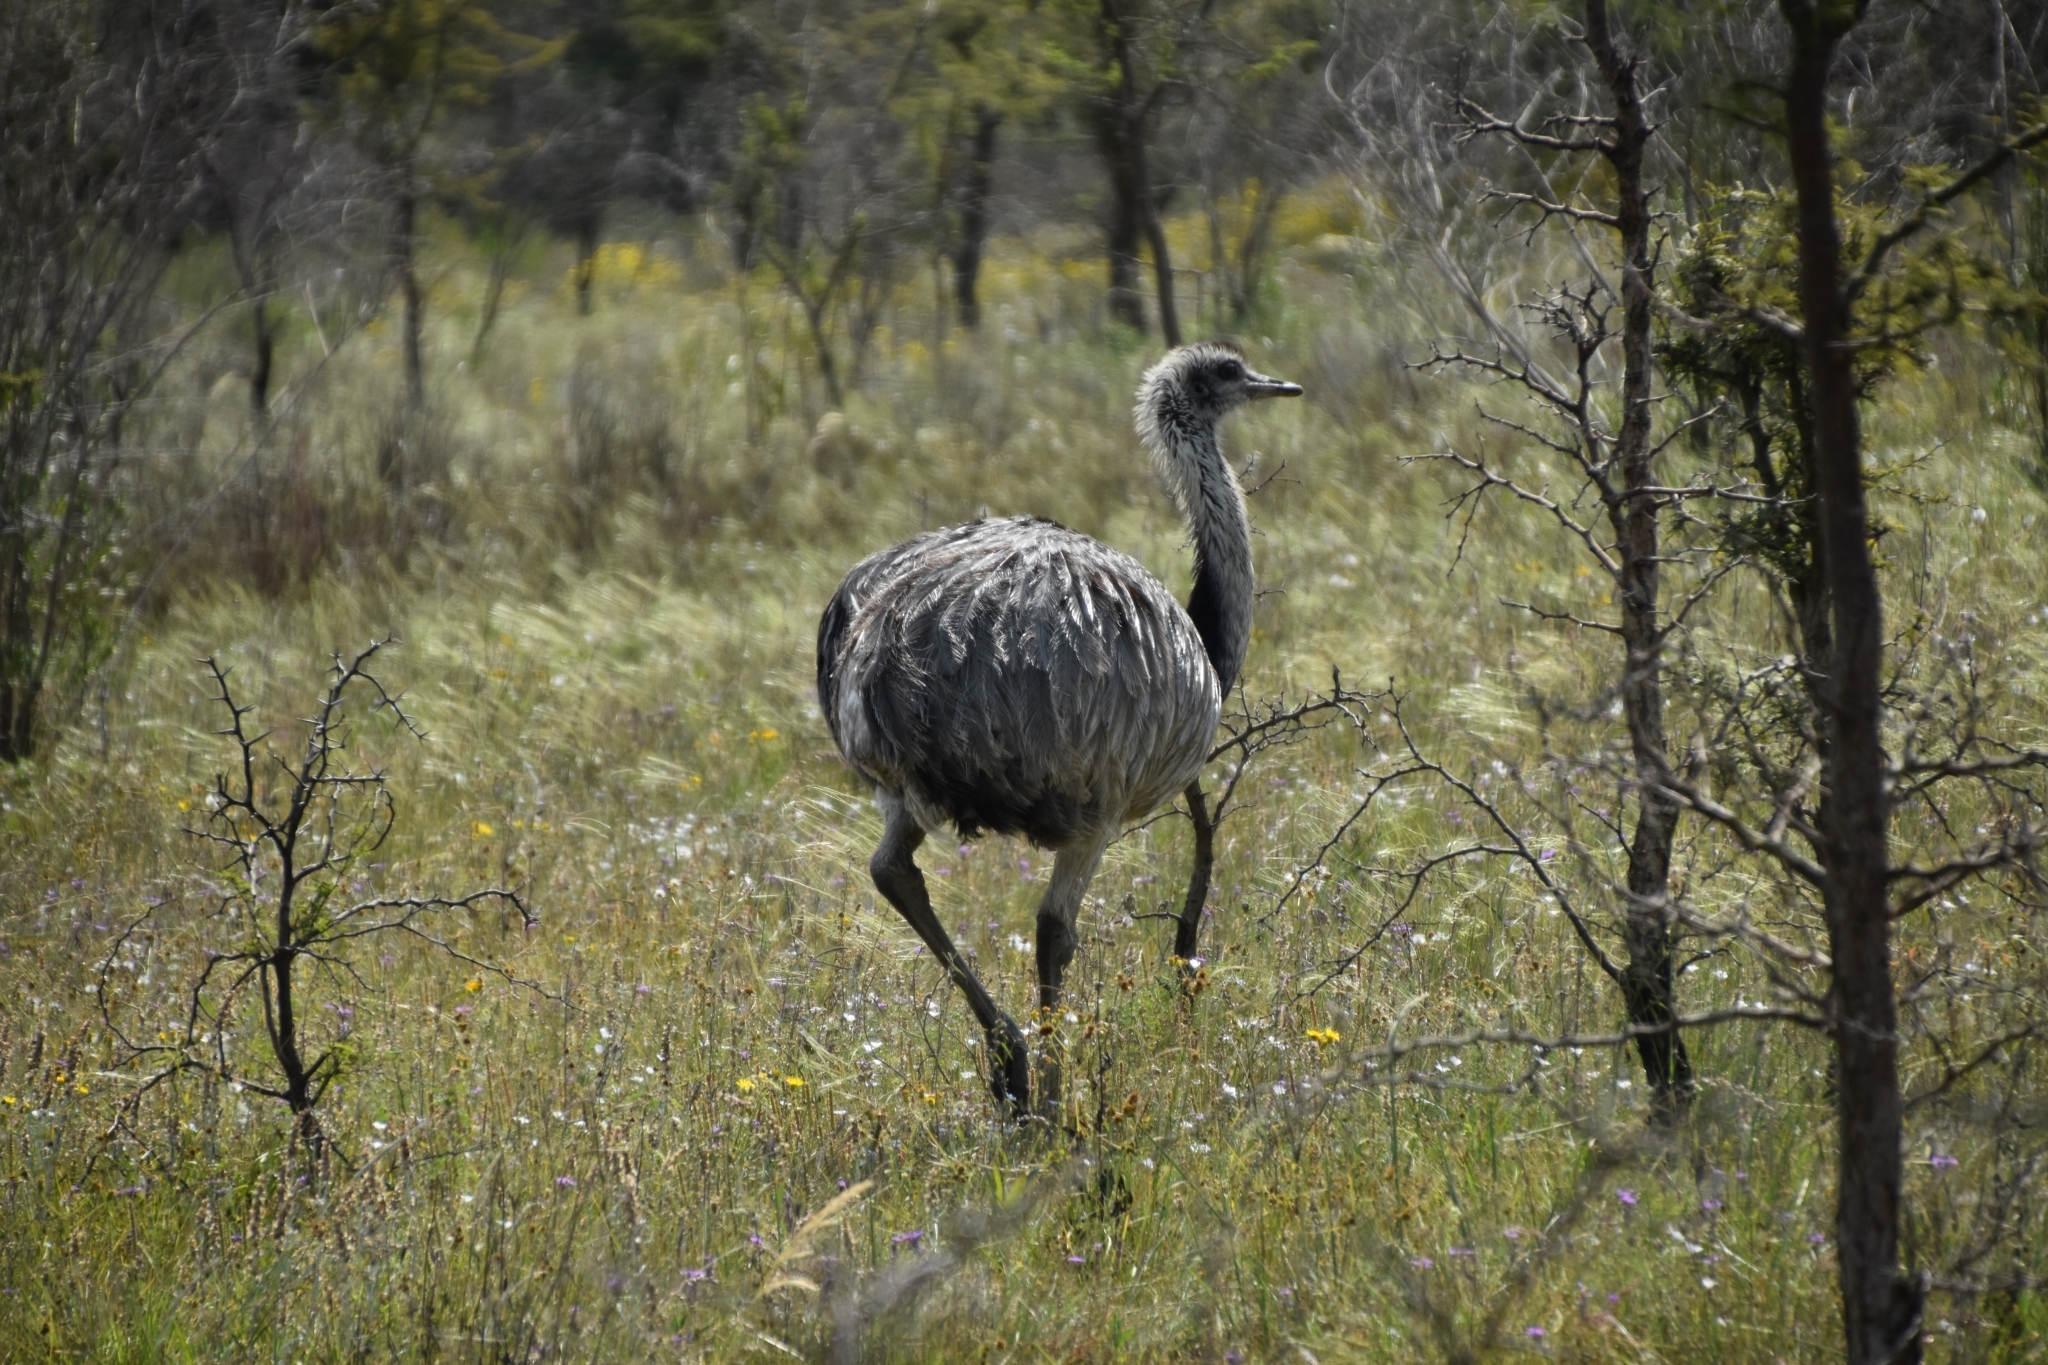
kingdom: Animalia
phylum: Chordata
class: Aves
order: Rheiformes
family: Rheidae
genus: Rhea
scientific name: Rhea americana
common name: Greater rhea
